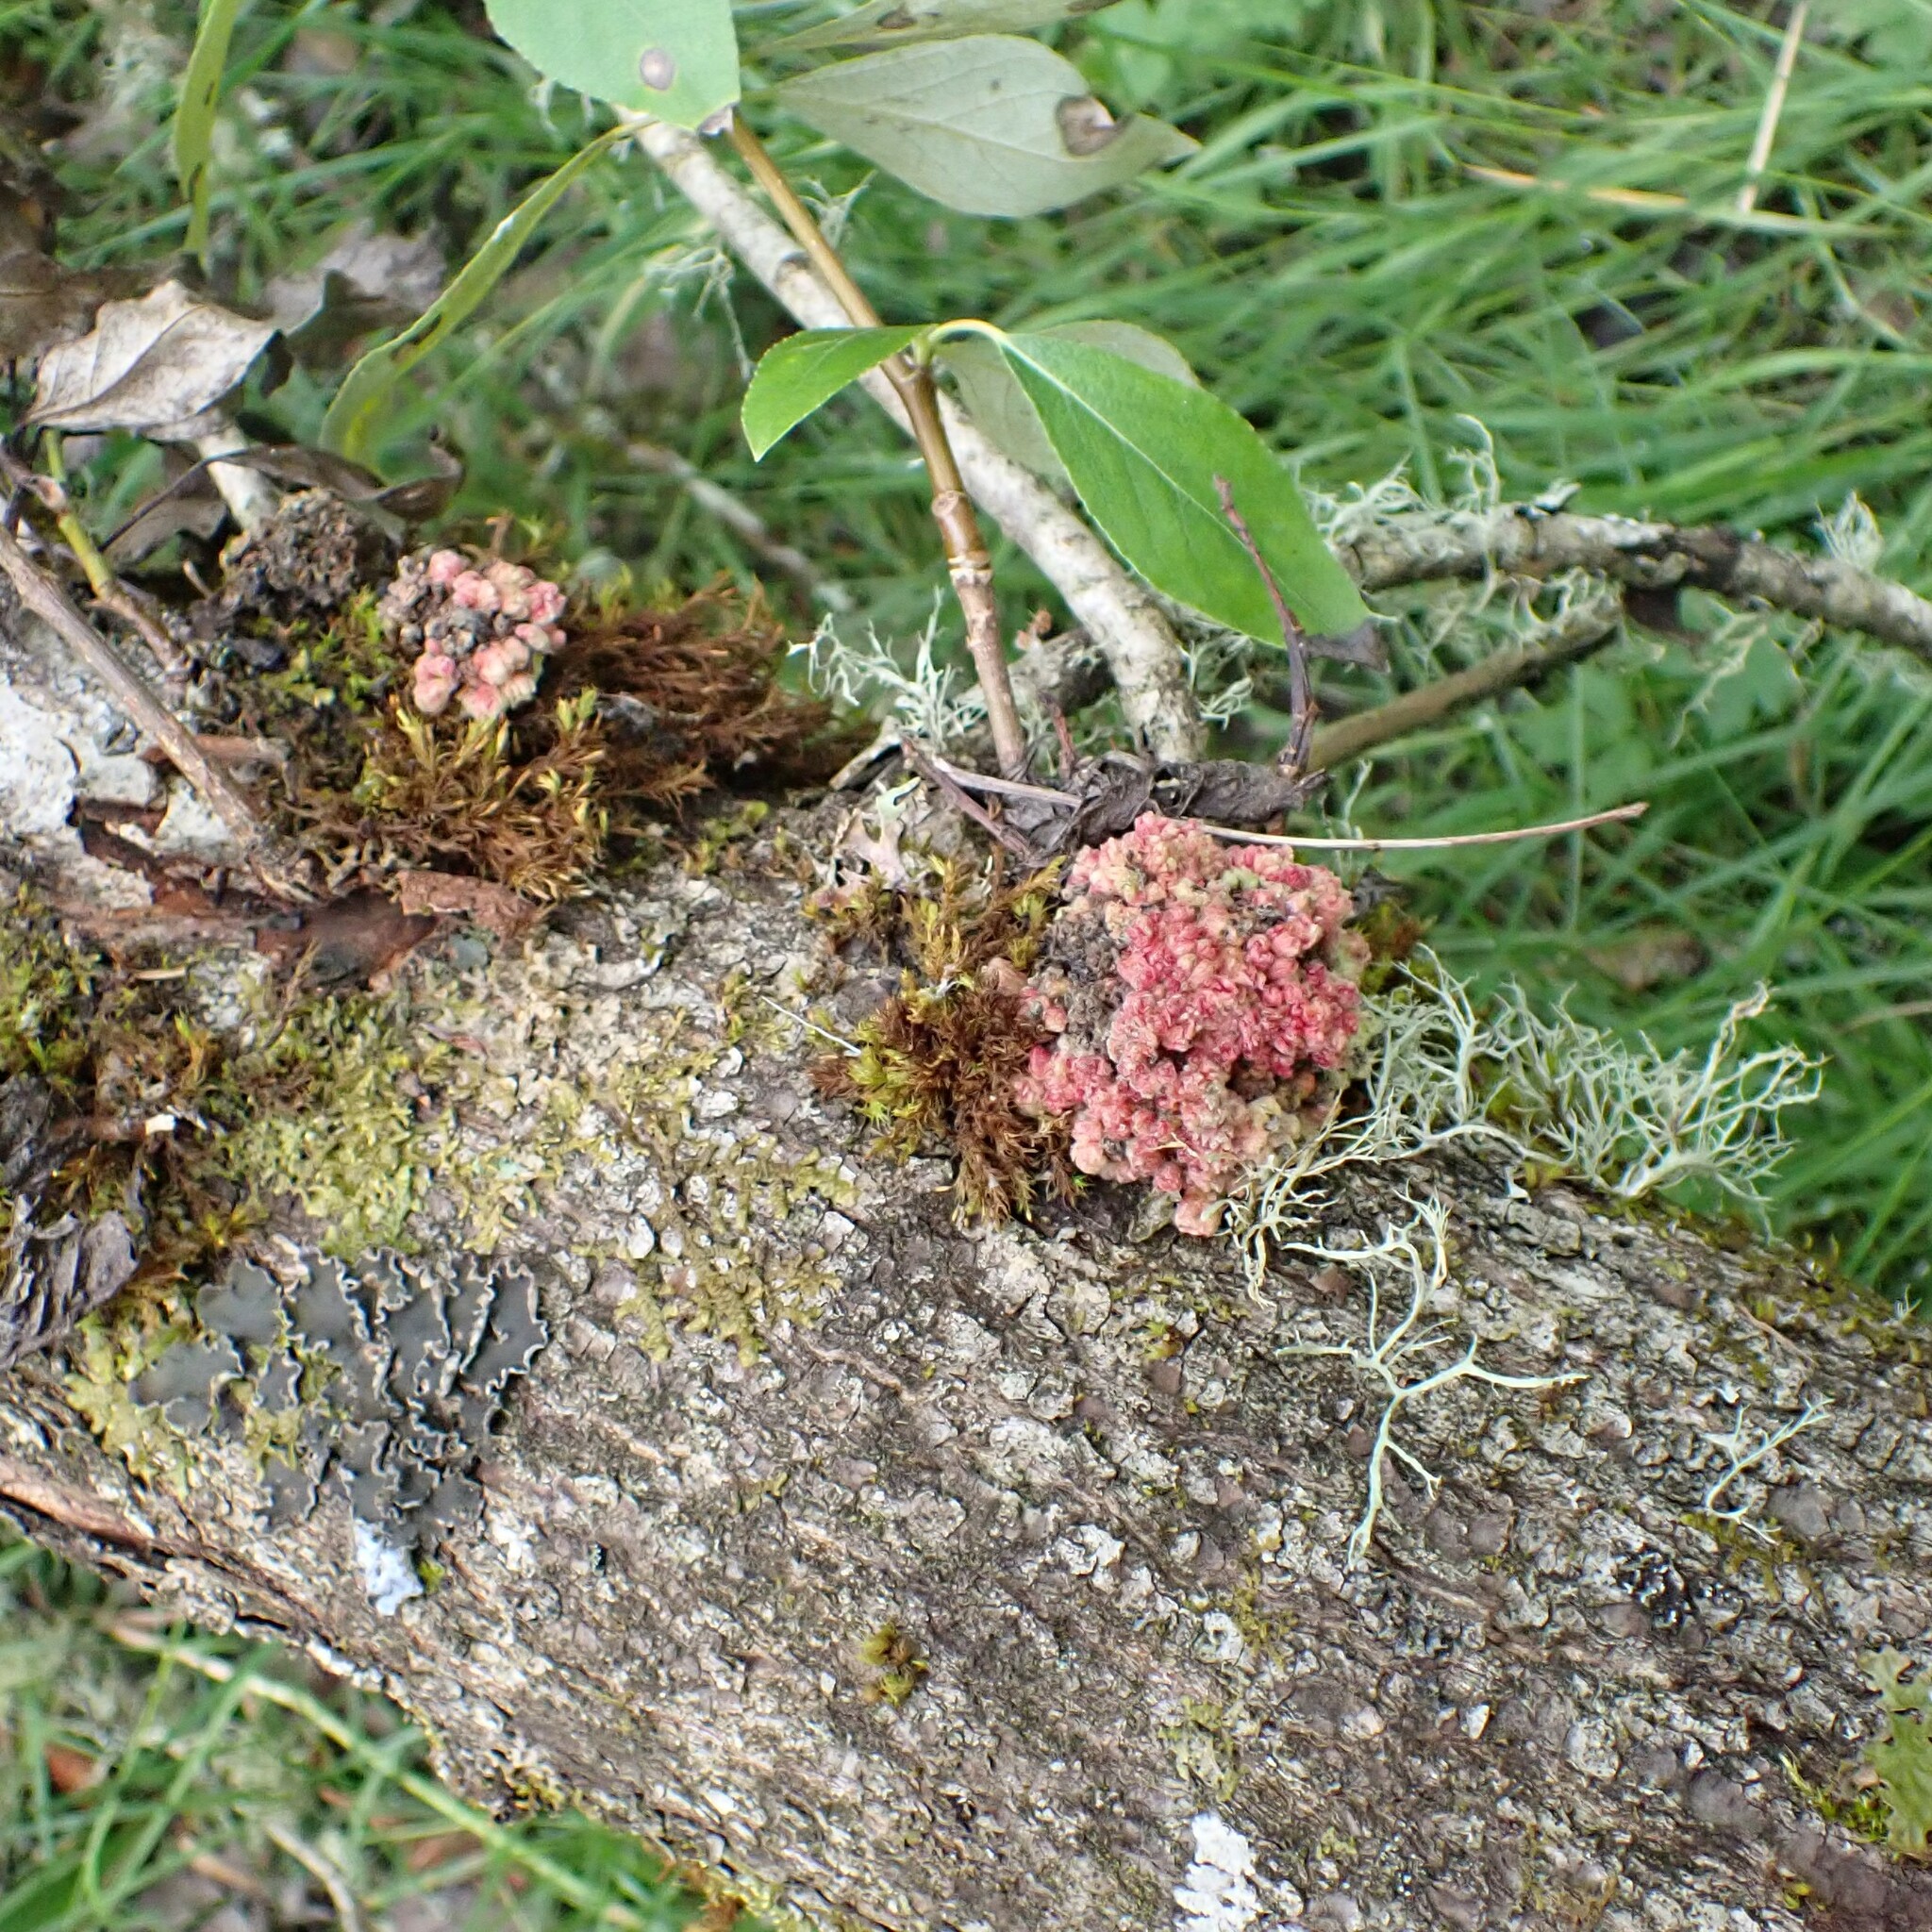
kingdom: Animalia
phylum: Arthropoda
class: Arachnida
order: Trombidiformes
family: Eriophyidae
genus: Aceria
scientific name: Aceria
